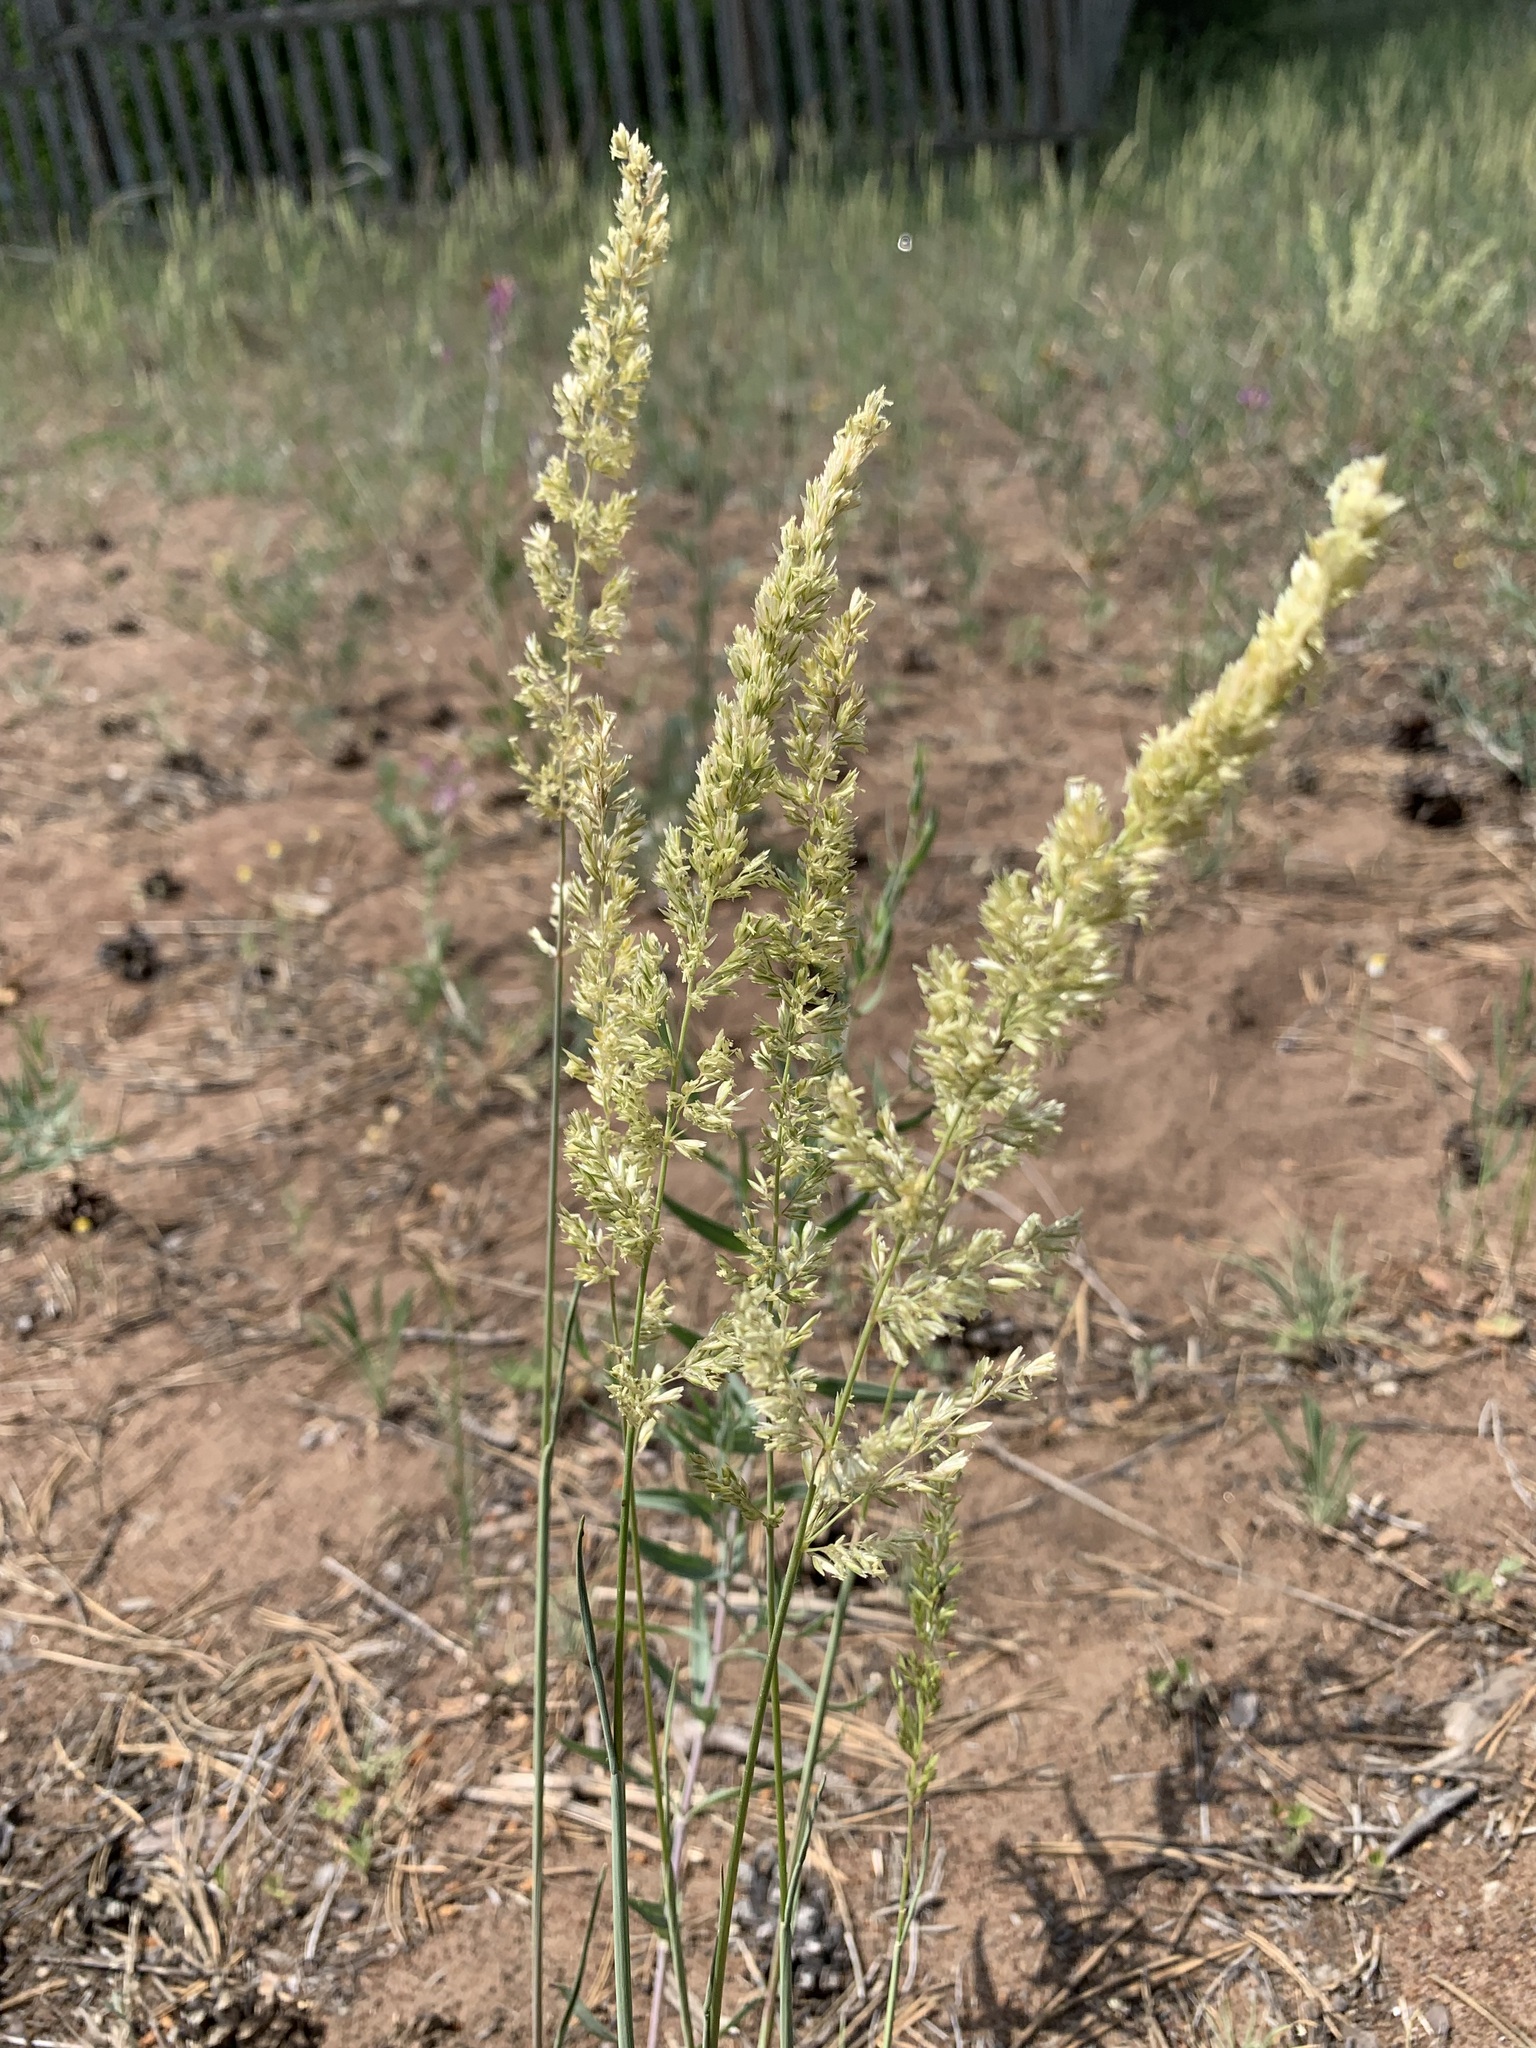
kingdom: Plantae
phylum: Tracheophyta
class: Liliopsida
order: Poales
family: Poaceae
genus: Koeleria
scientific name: Koeleria macrantha
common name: Crested hair-grass
